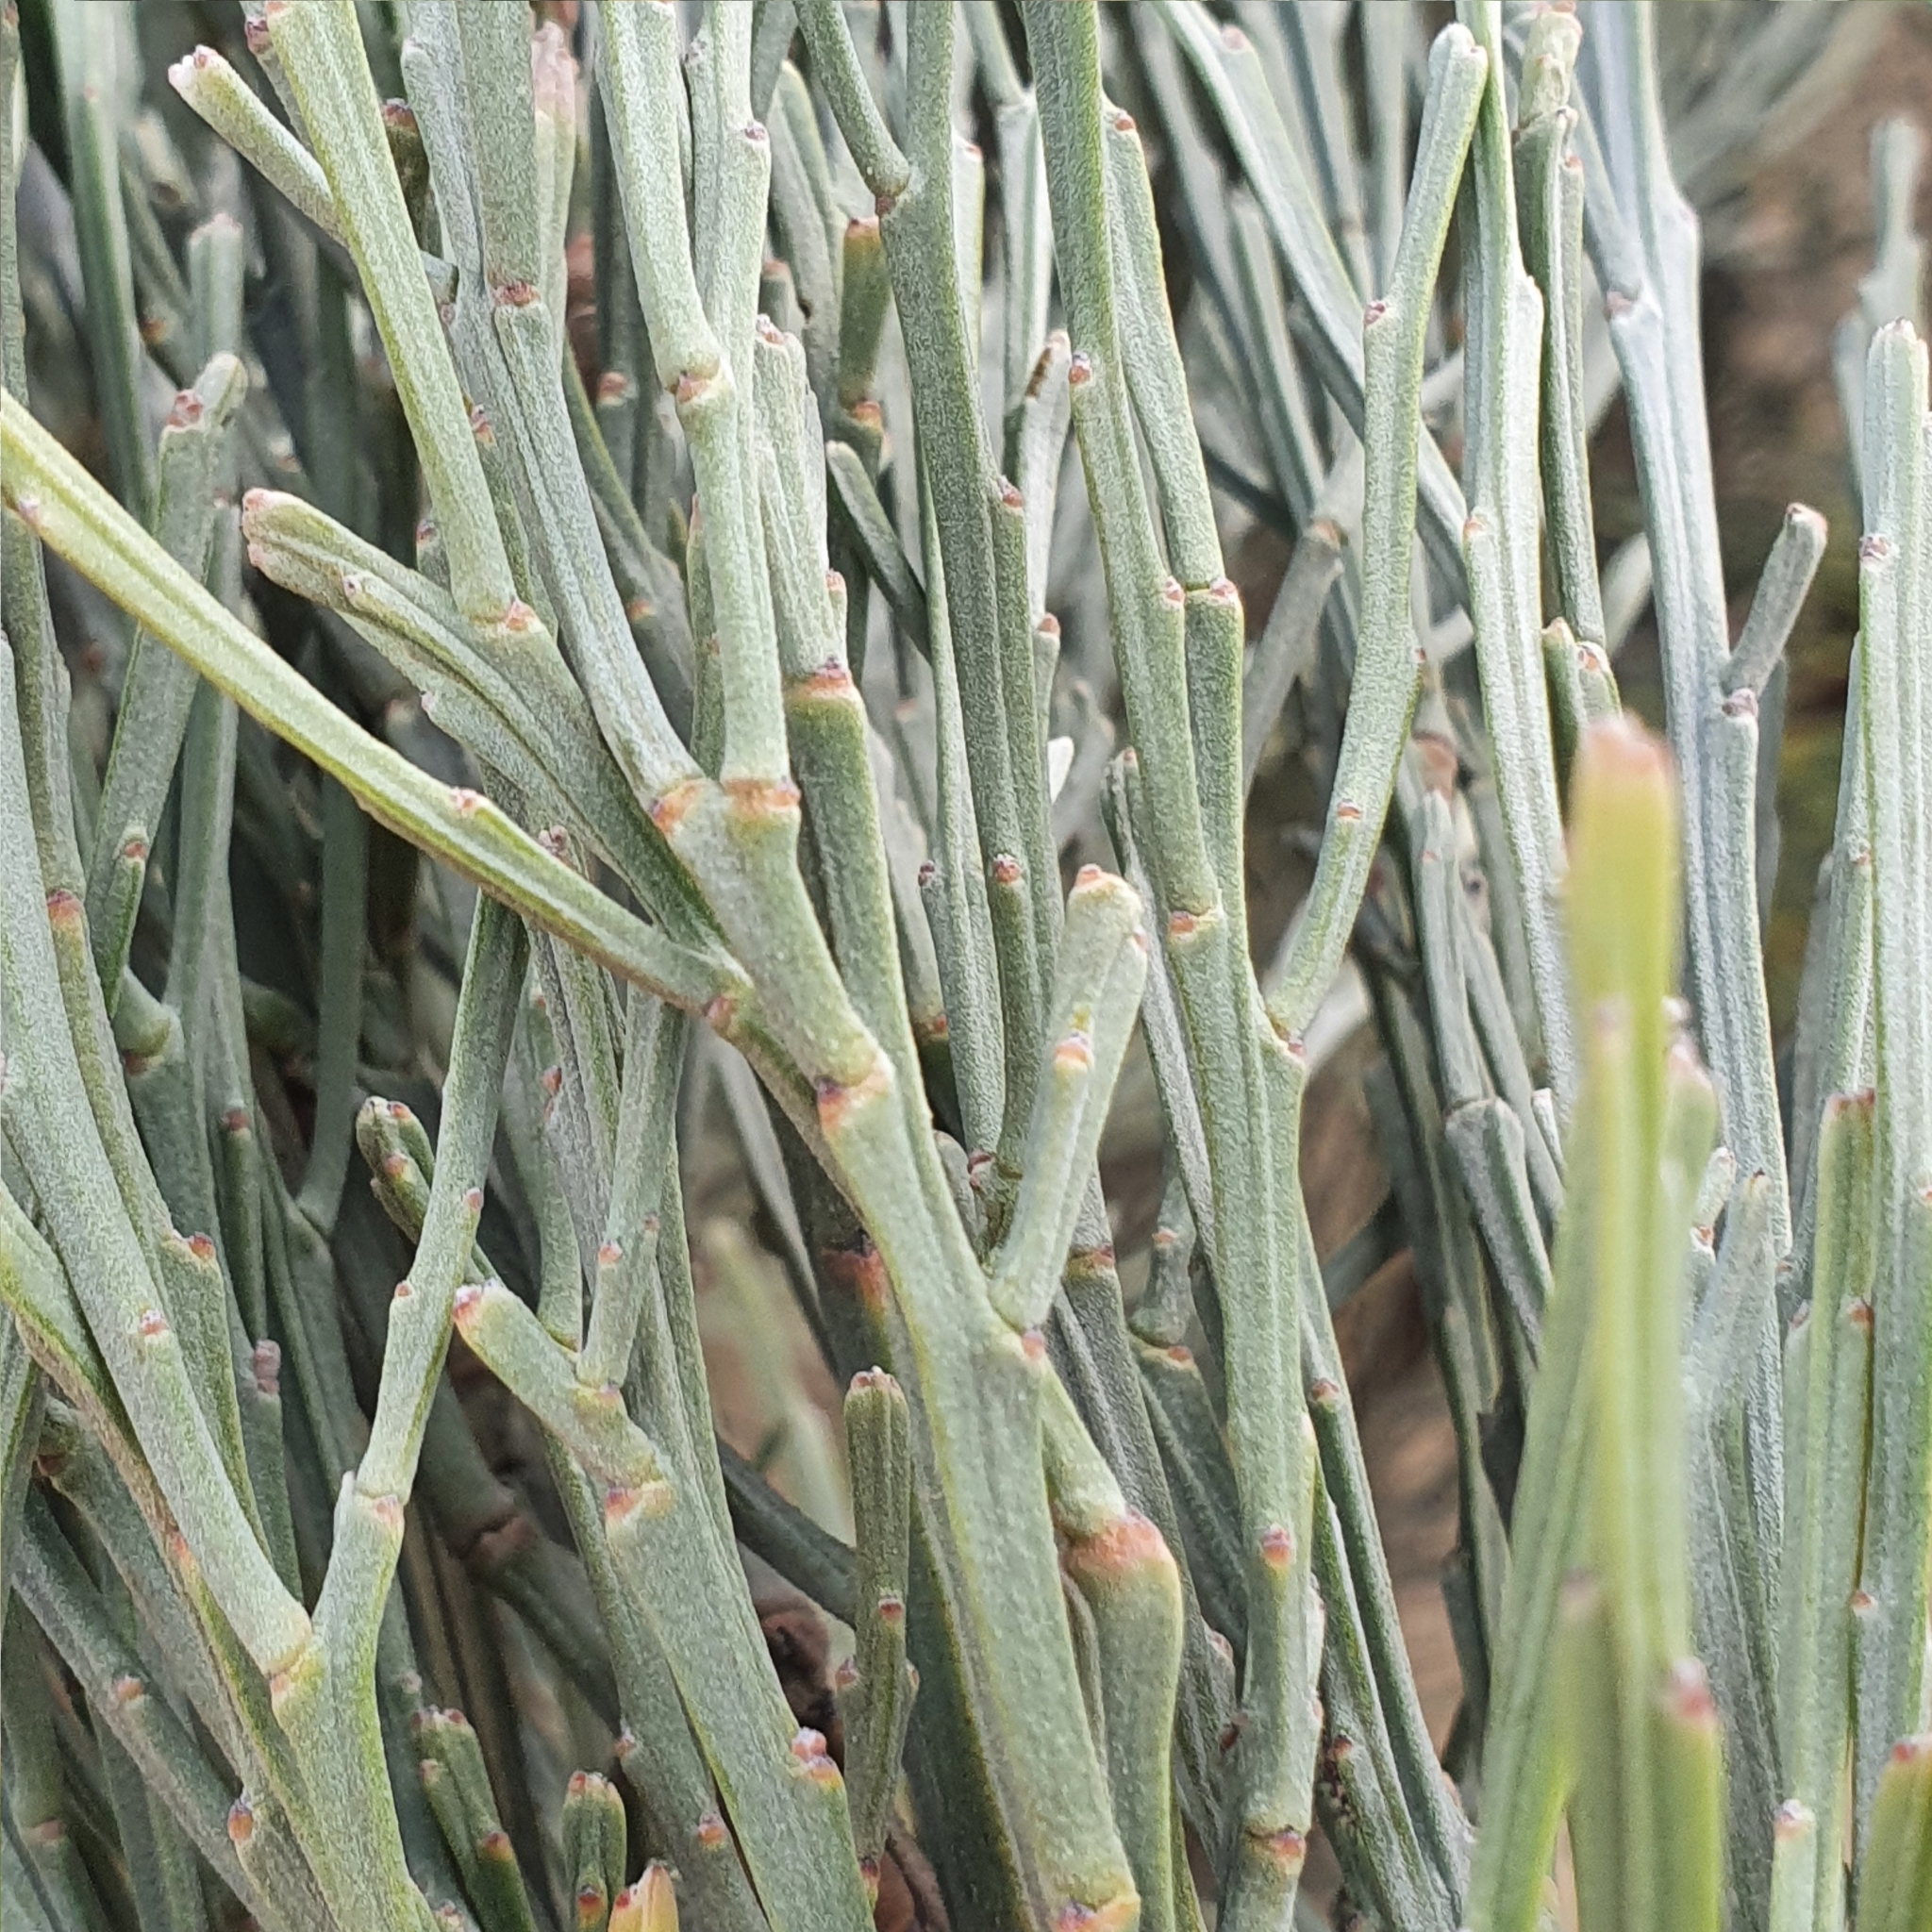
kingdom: Plantae
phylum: Tracheophyta
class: Magnoliopsida
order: Fabales
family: Fabaceae
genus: Jacksonia
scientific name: Jacksonia scoparia
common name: Dogwood
